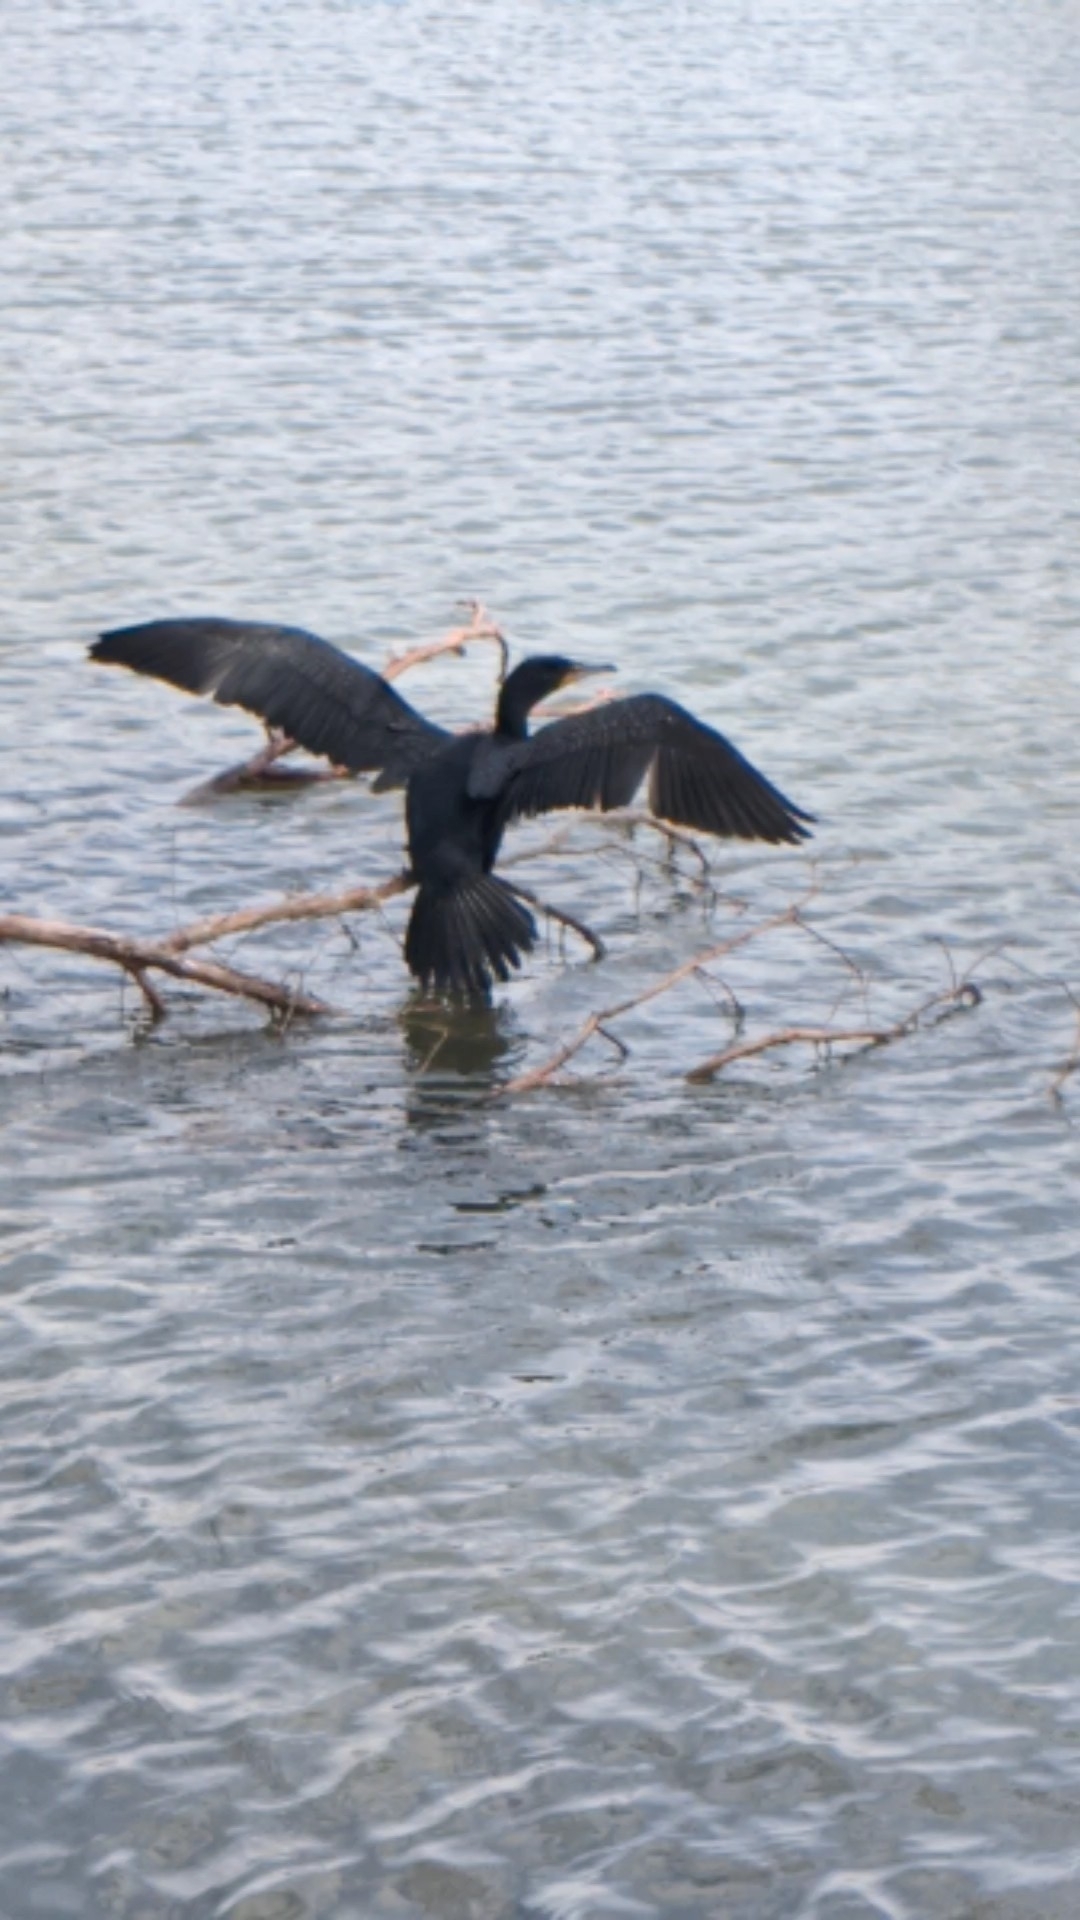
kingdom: Animalia
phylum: Chordata
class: Aves
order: Suliformes
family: Phalacrocoracidae
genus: Phalacrocorax
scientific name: Phalacrocorax auritus
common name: Double-crested cormorant
